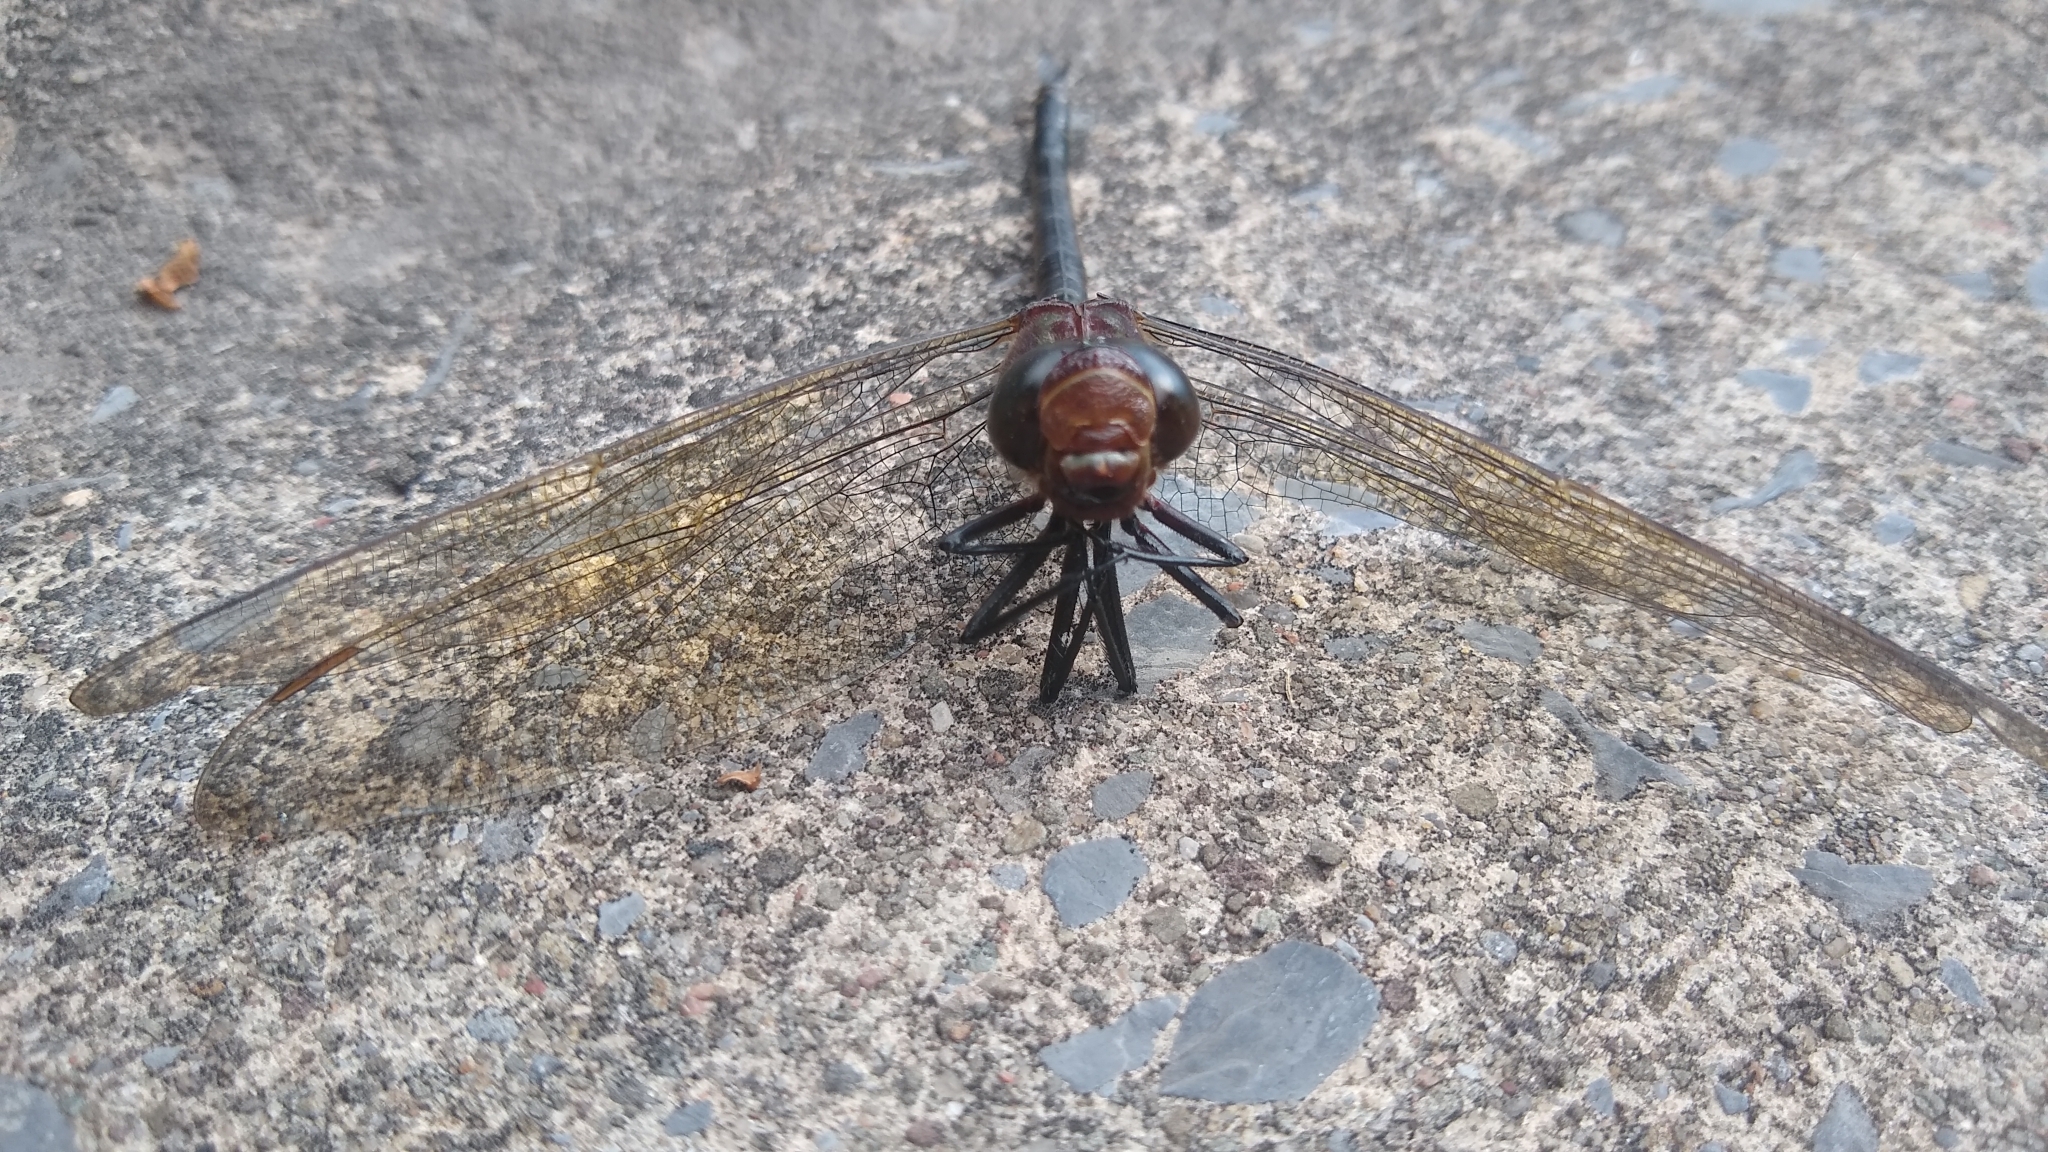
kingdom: Animalia
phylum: Arthropoda
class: Insecta
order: Odonata
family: Aeshnidae
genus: Epiaeschna
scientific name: Epiaeschna heros
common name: Swamp darner
